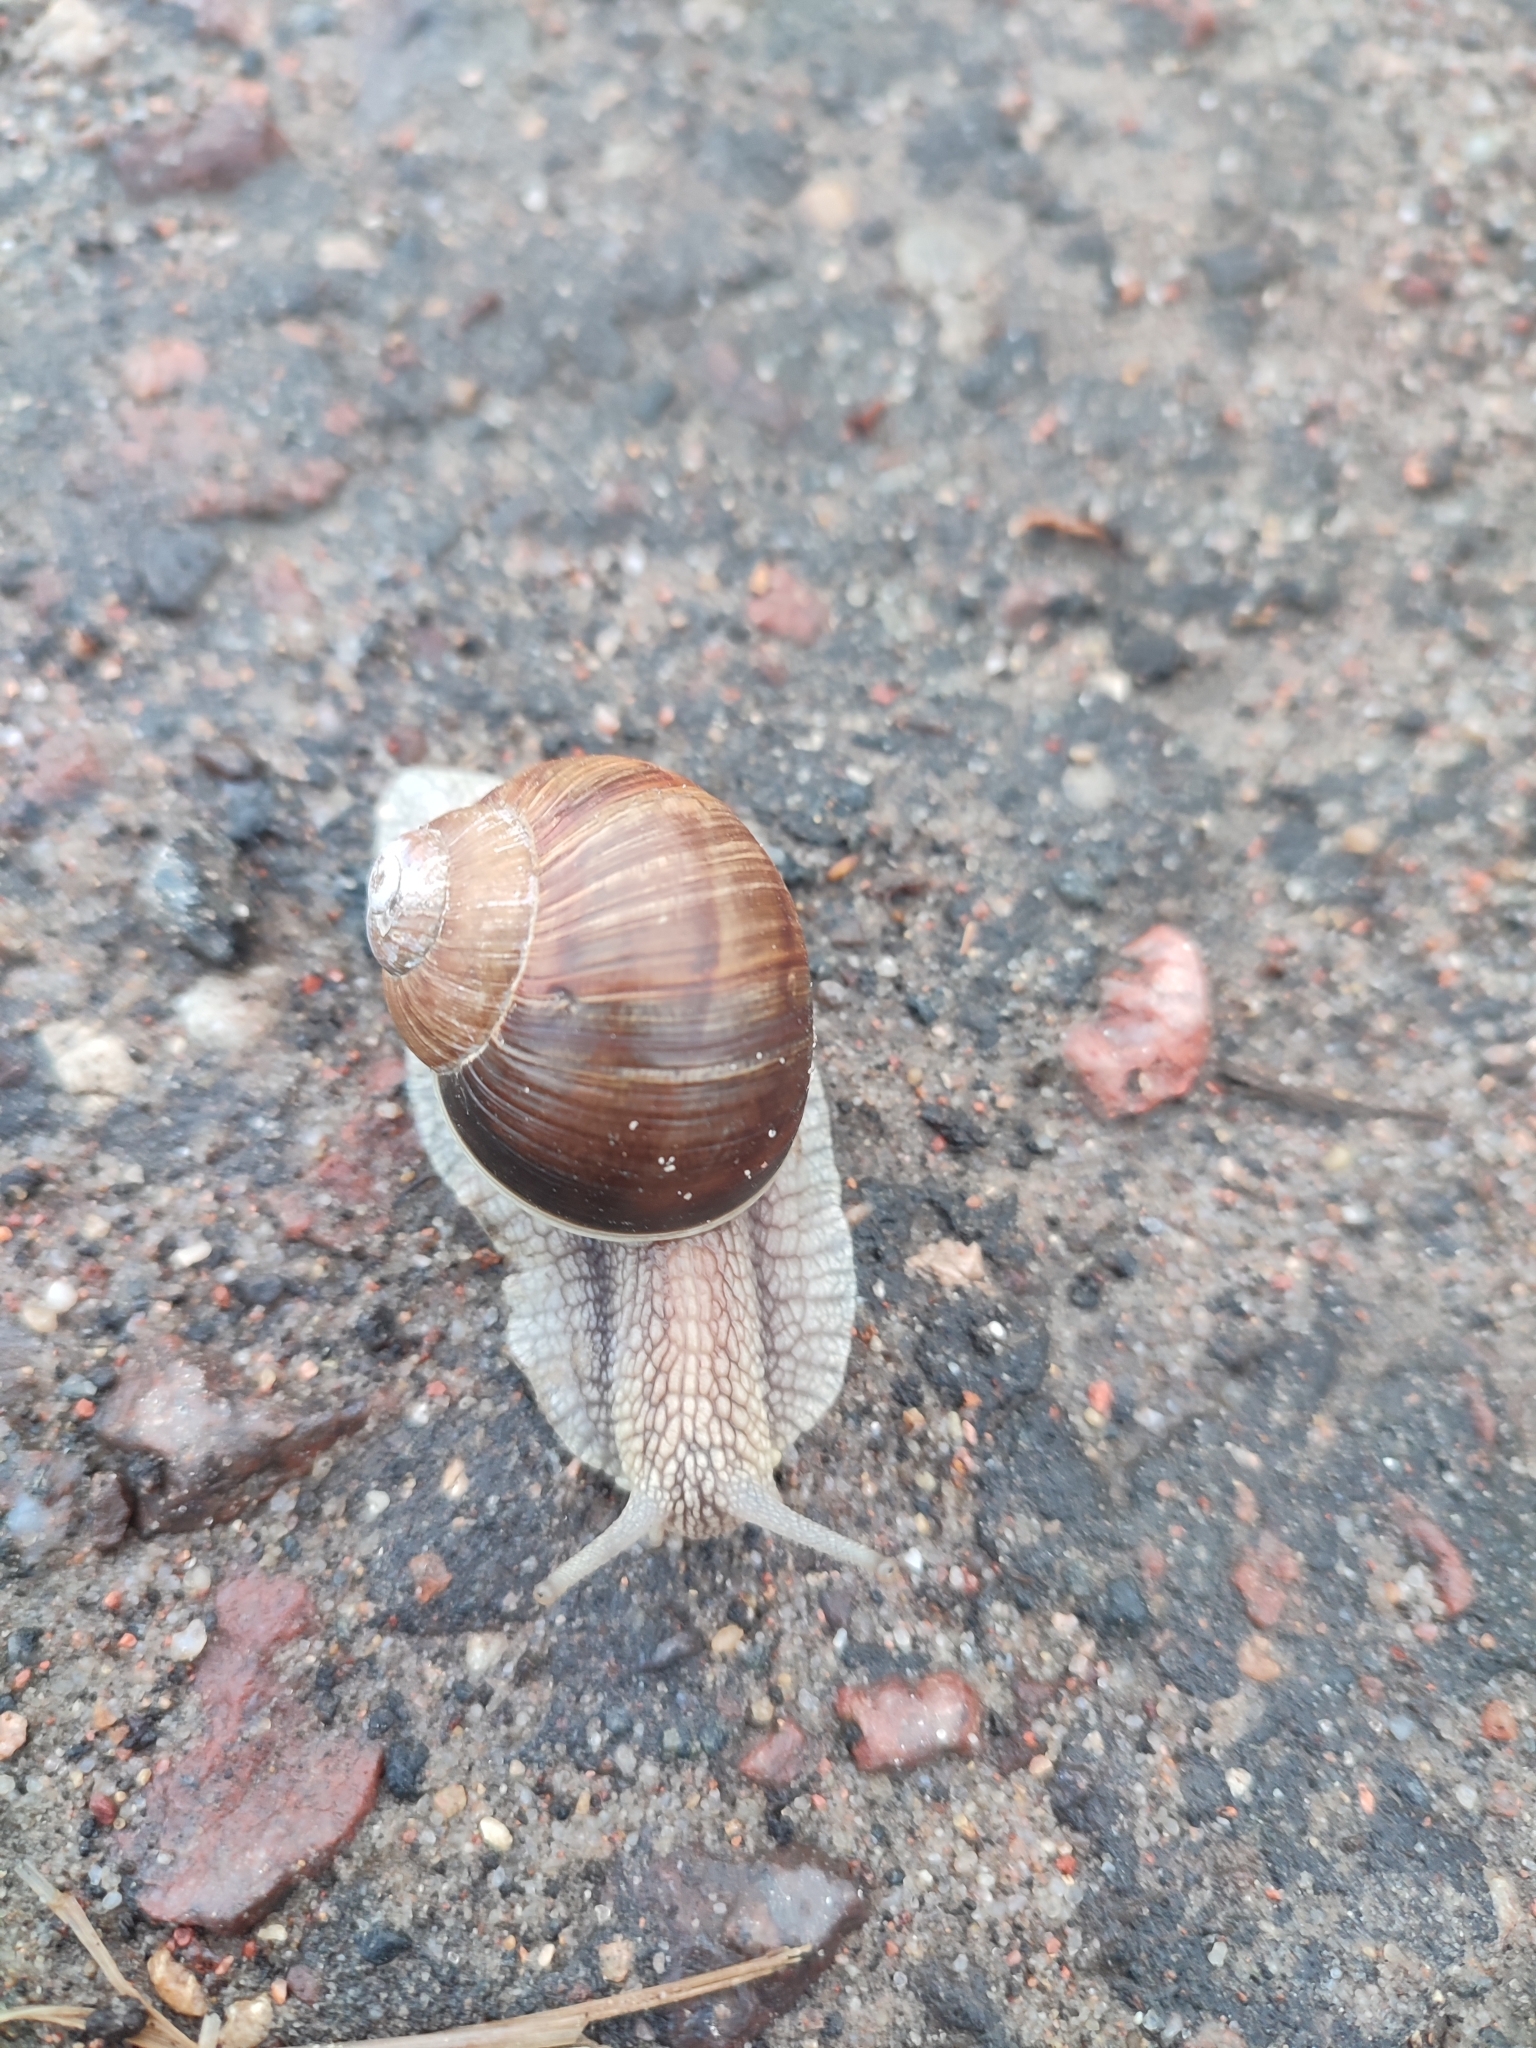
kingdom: Animalia
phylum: Mollusca
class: Gastropoda
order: Stylommatophora
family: Helicidae
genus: Helix
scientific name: Helix pomatia
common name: Roman snail
